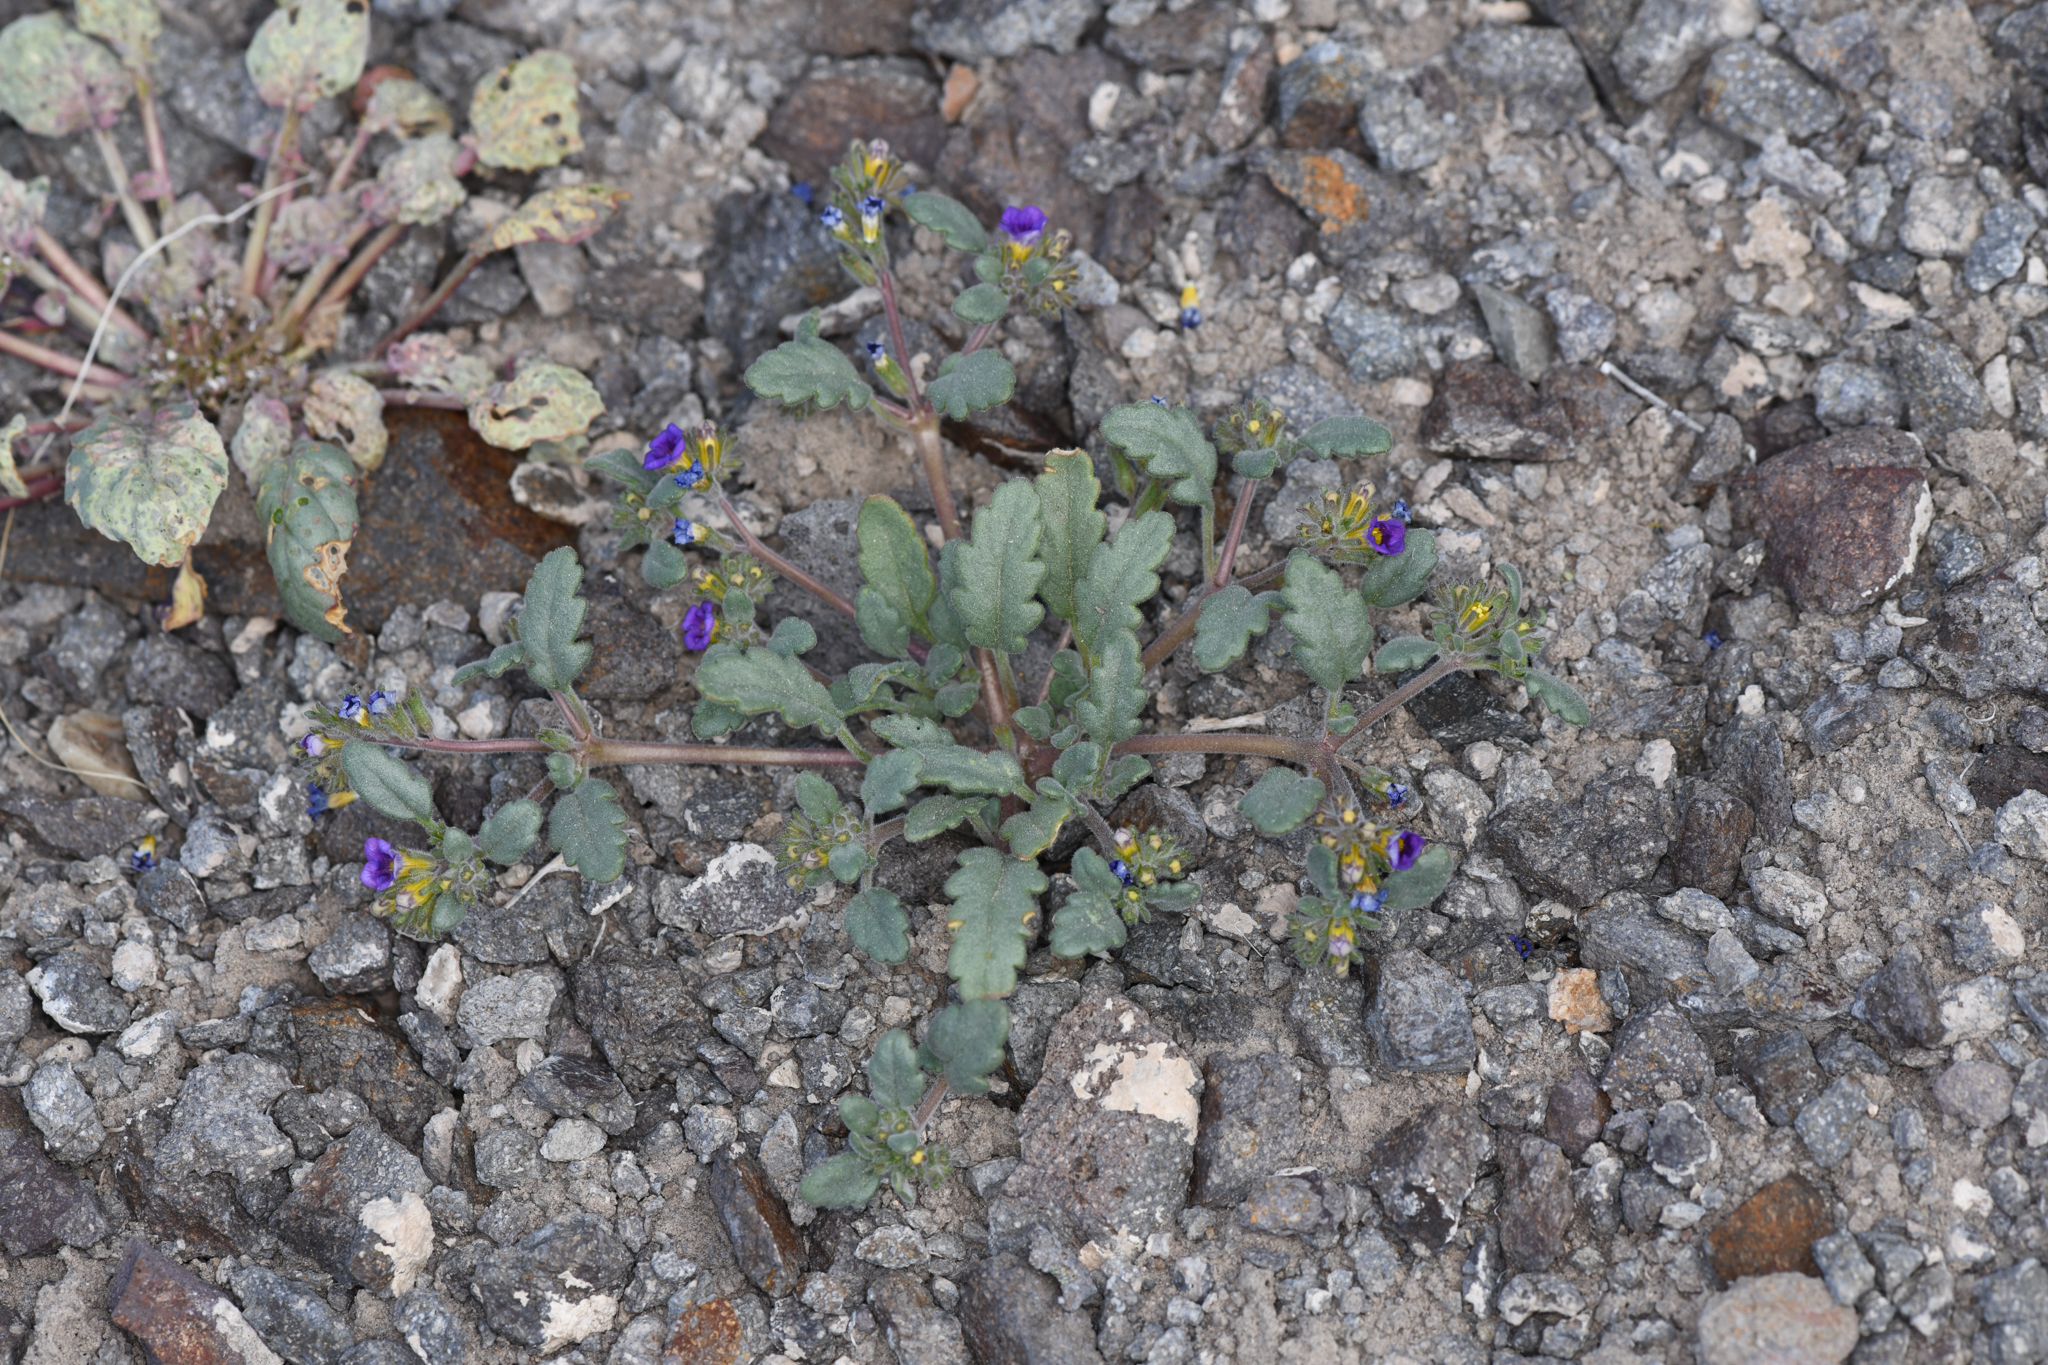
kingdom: Plantae
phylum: Tracheophyta
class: Magnoliopsida
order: Boraginales
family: Hydrophyllaceae
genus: Phacelia
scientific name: Phacelia gymnoclada
